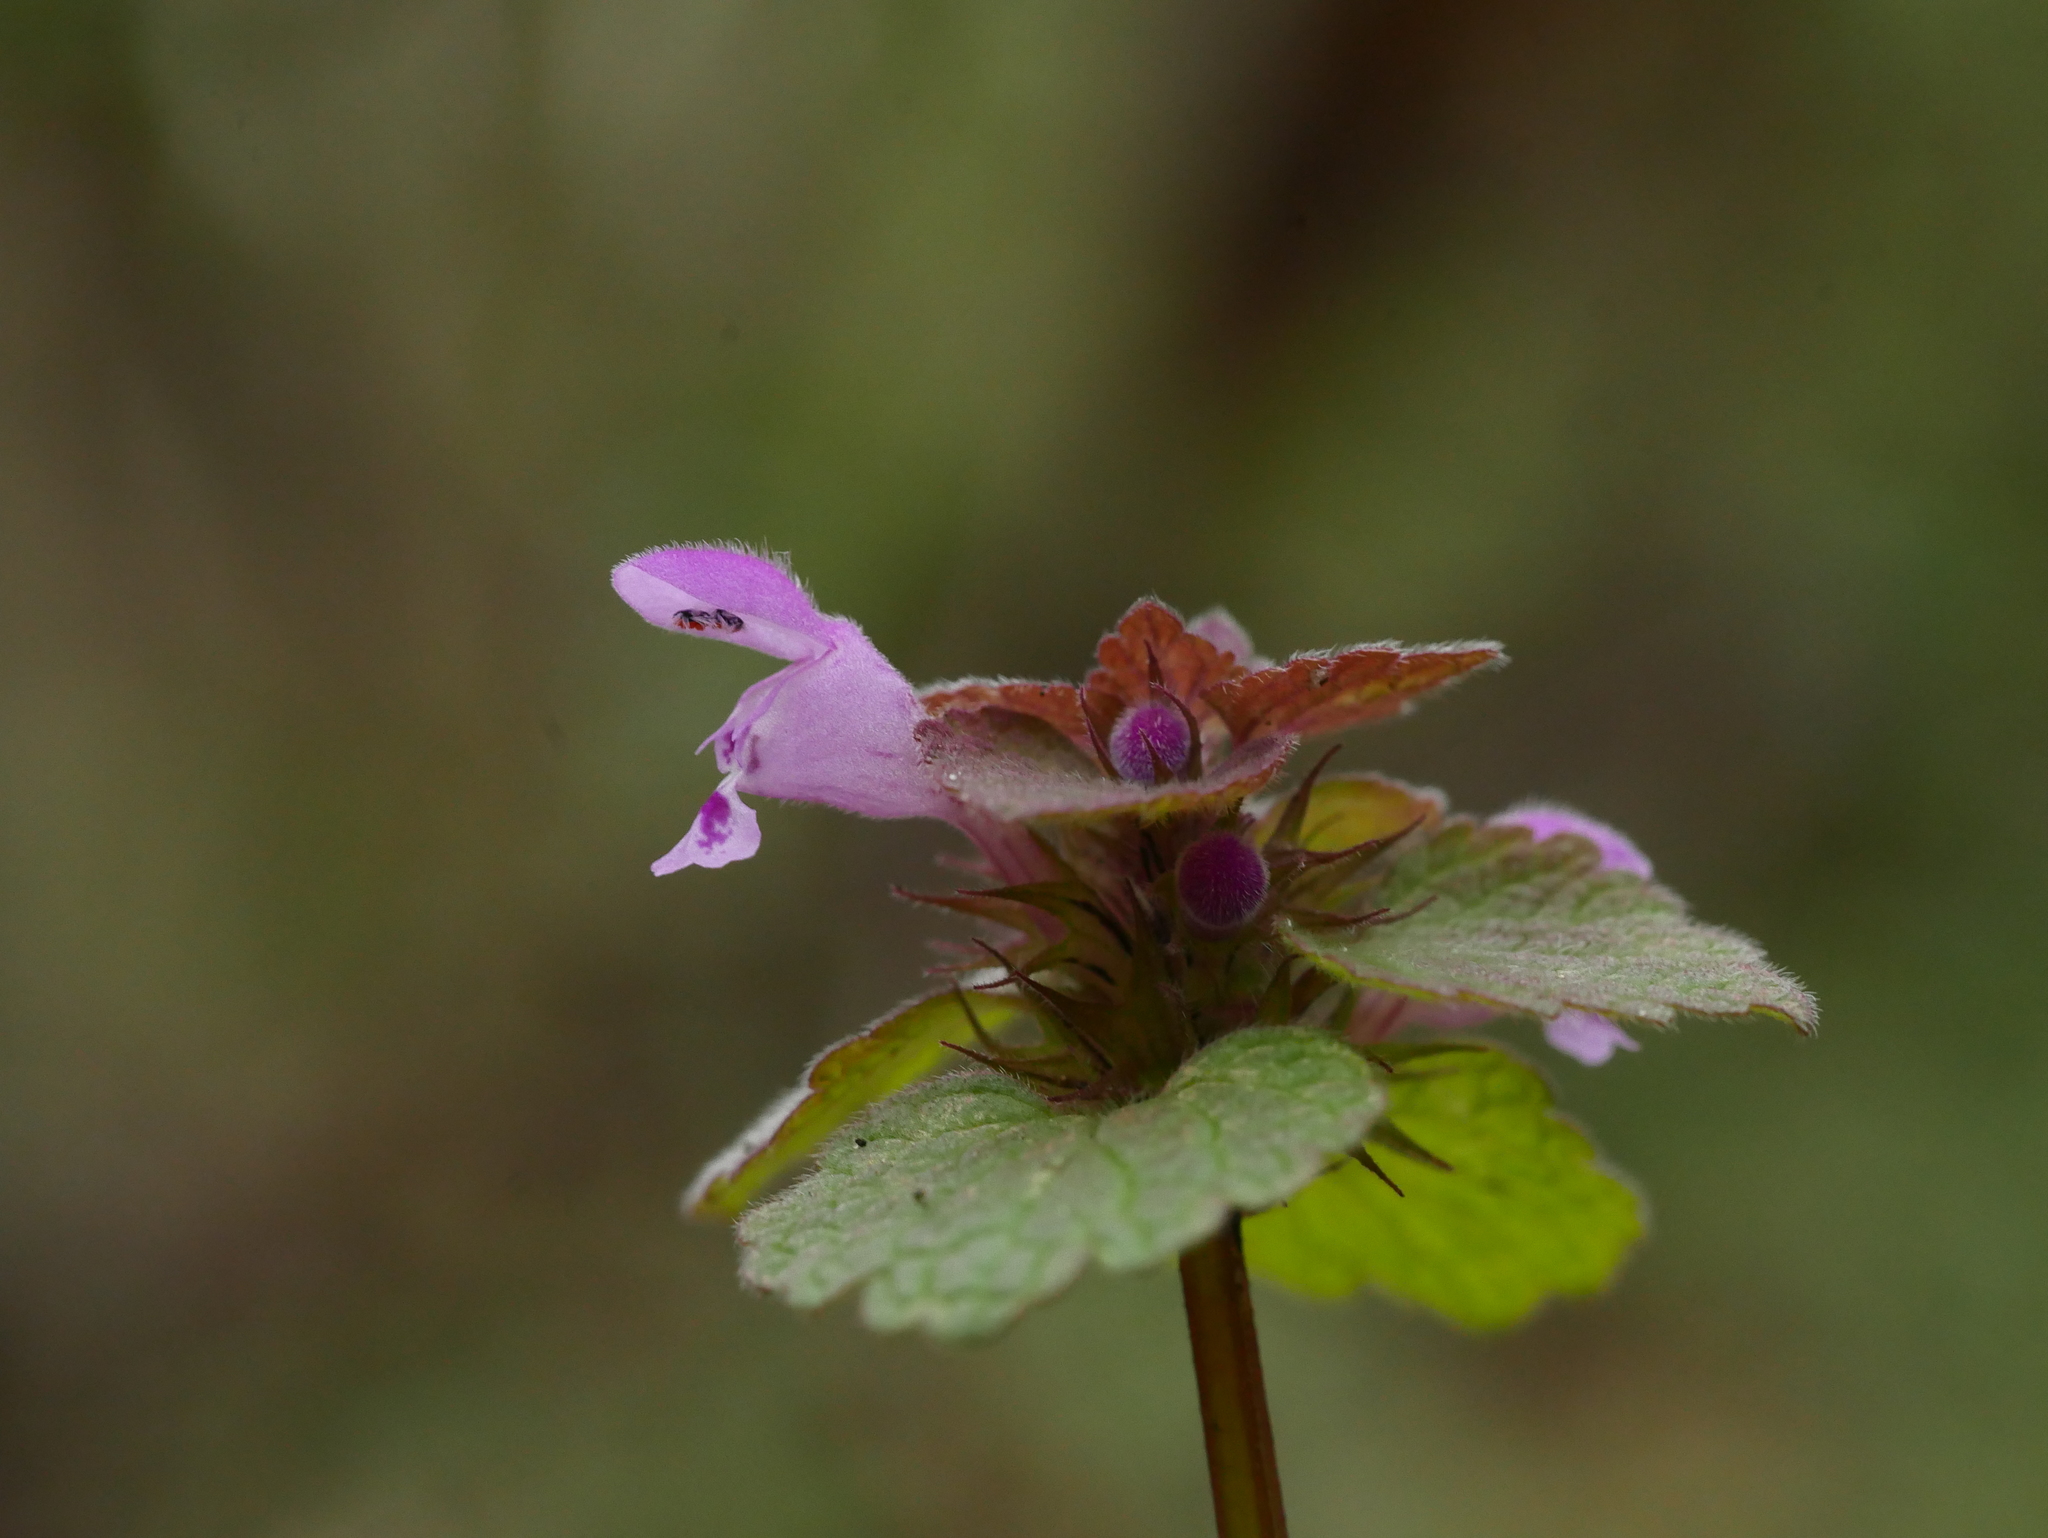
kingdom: Plantae
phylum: Tracheophyta
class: Magnoliopsida
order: Lamiales
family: Lamiaceae
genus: Lamium
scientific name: Lamium purpureum
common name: Red dead-nettle
